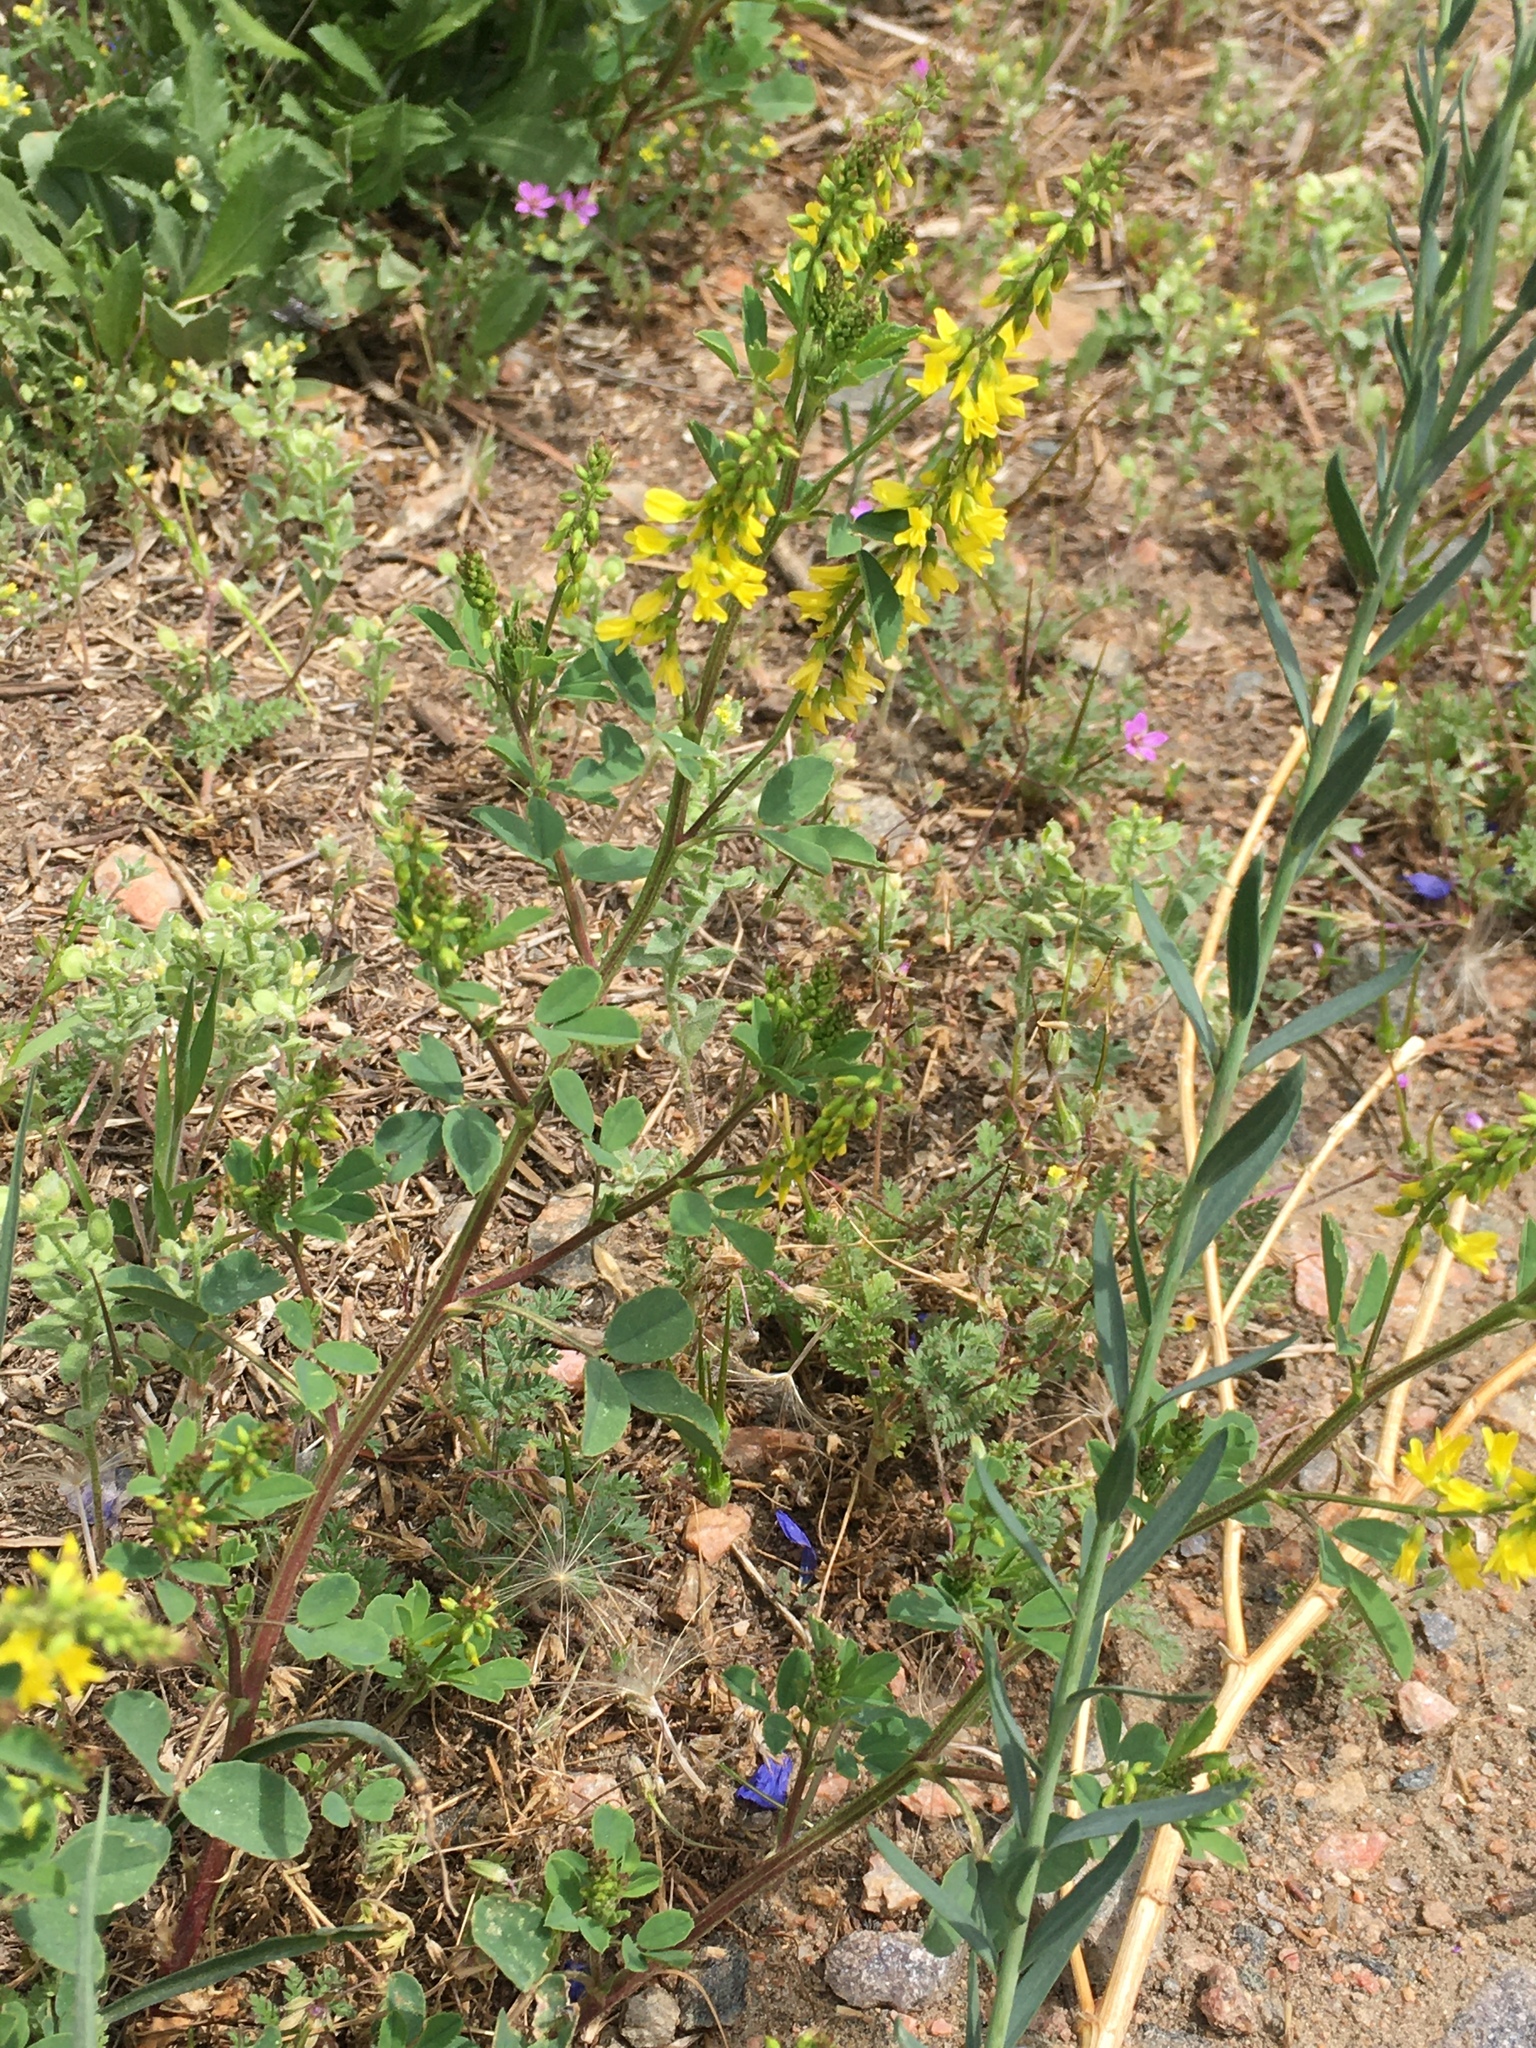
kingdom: Plantae
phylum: Tracheophyta
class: Magnoliopsida
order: Fabales
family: Fabaceae
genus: Melilotus
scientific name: Melilotus officinalis
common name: Sweetclover
